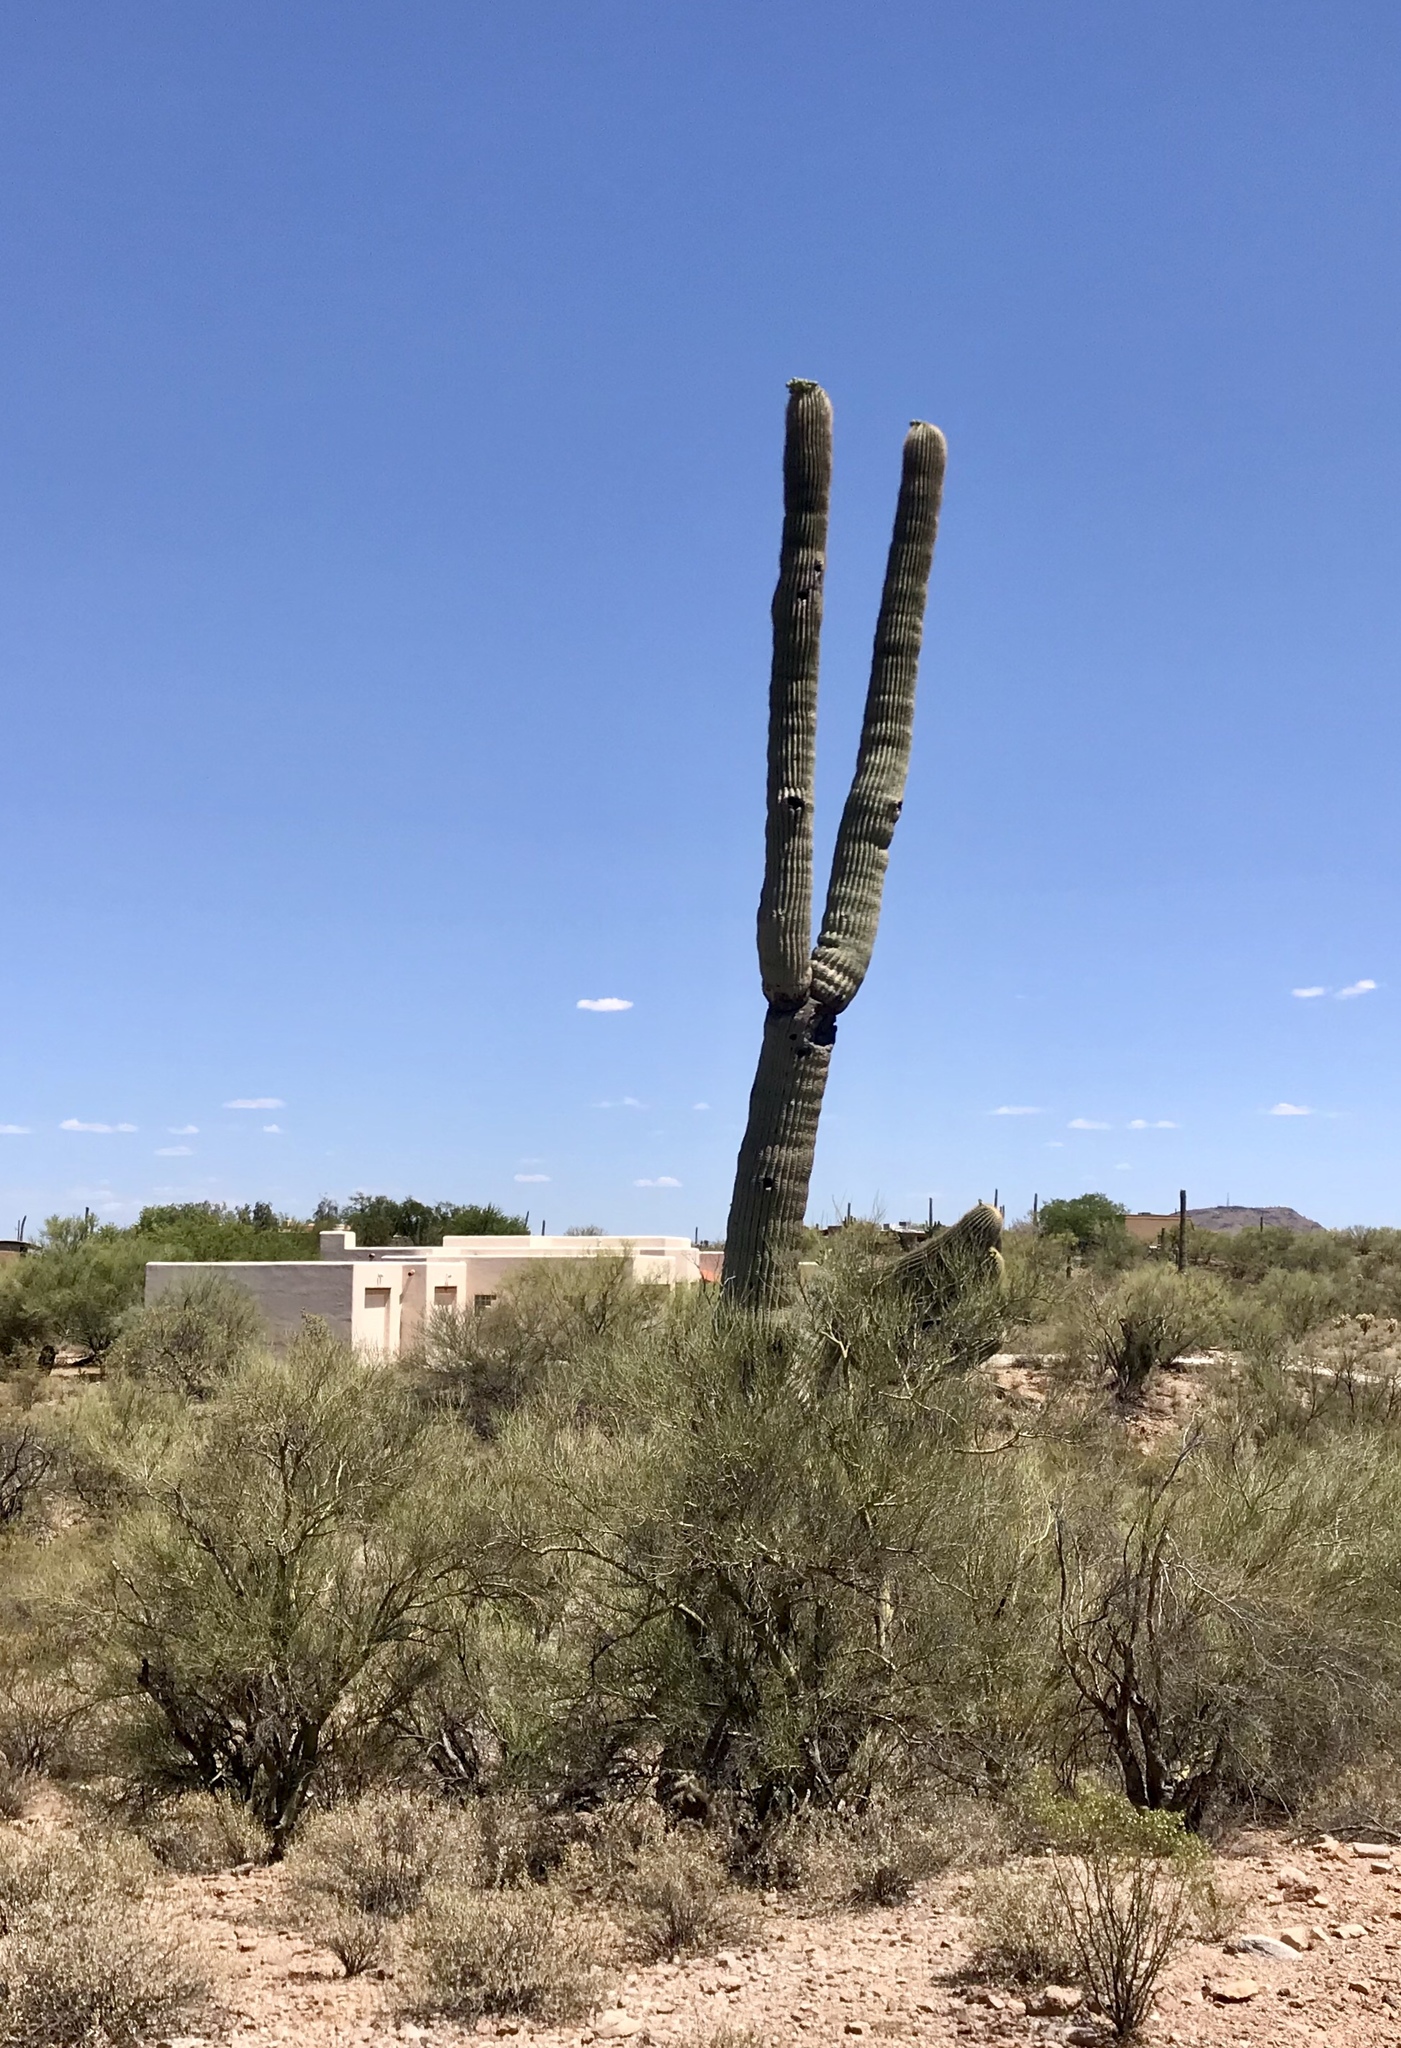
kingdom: Plantae
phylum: Tracheophyta
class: Magnoliopsida
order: Caryophyllales
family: Cactaceae
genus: Carnegiea
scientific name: Carnegiea gigantea
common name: Saguaro
